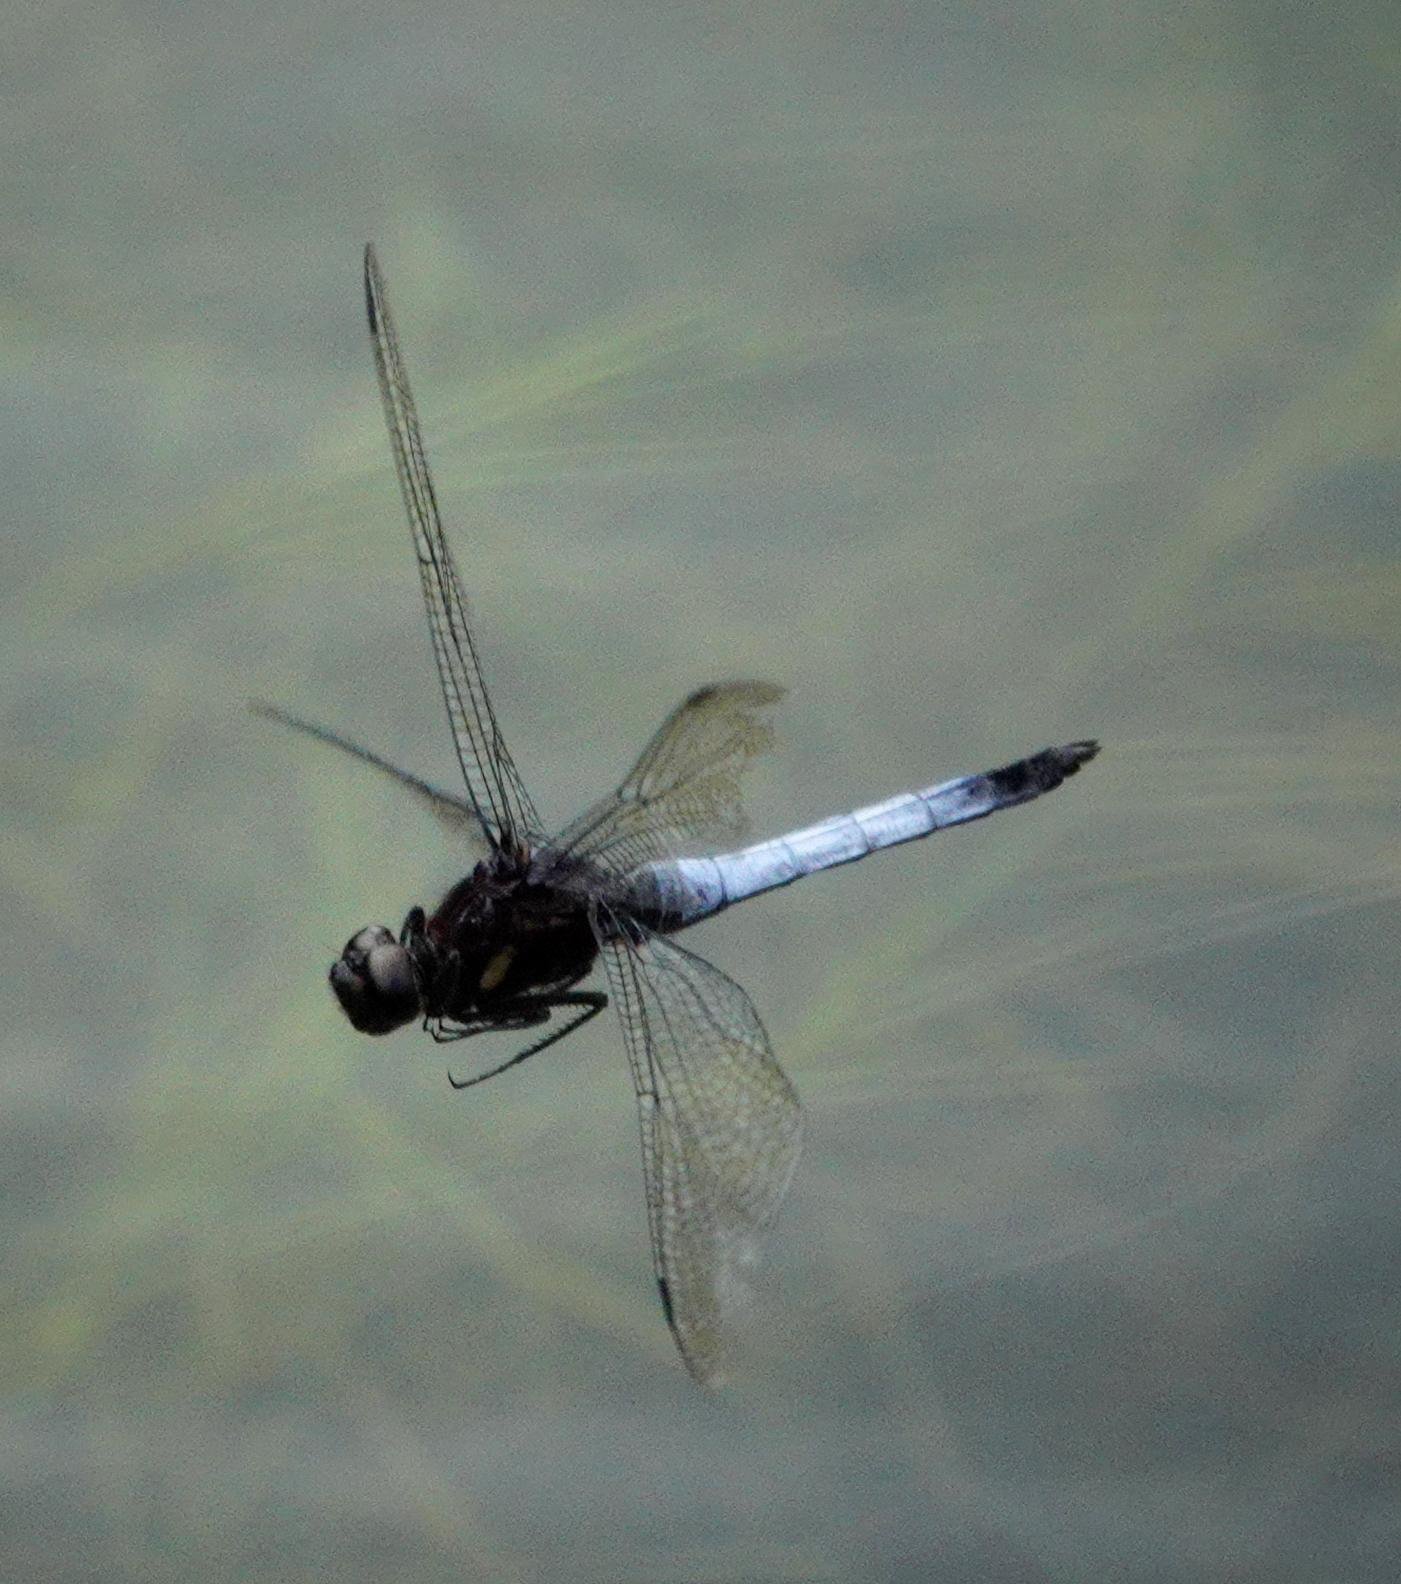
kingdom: Animalia
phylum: Arthropoda
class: Insecta
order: Odonata
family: Libellulidae
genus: Orthetrum
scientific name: Orthetrum triangulare
